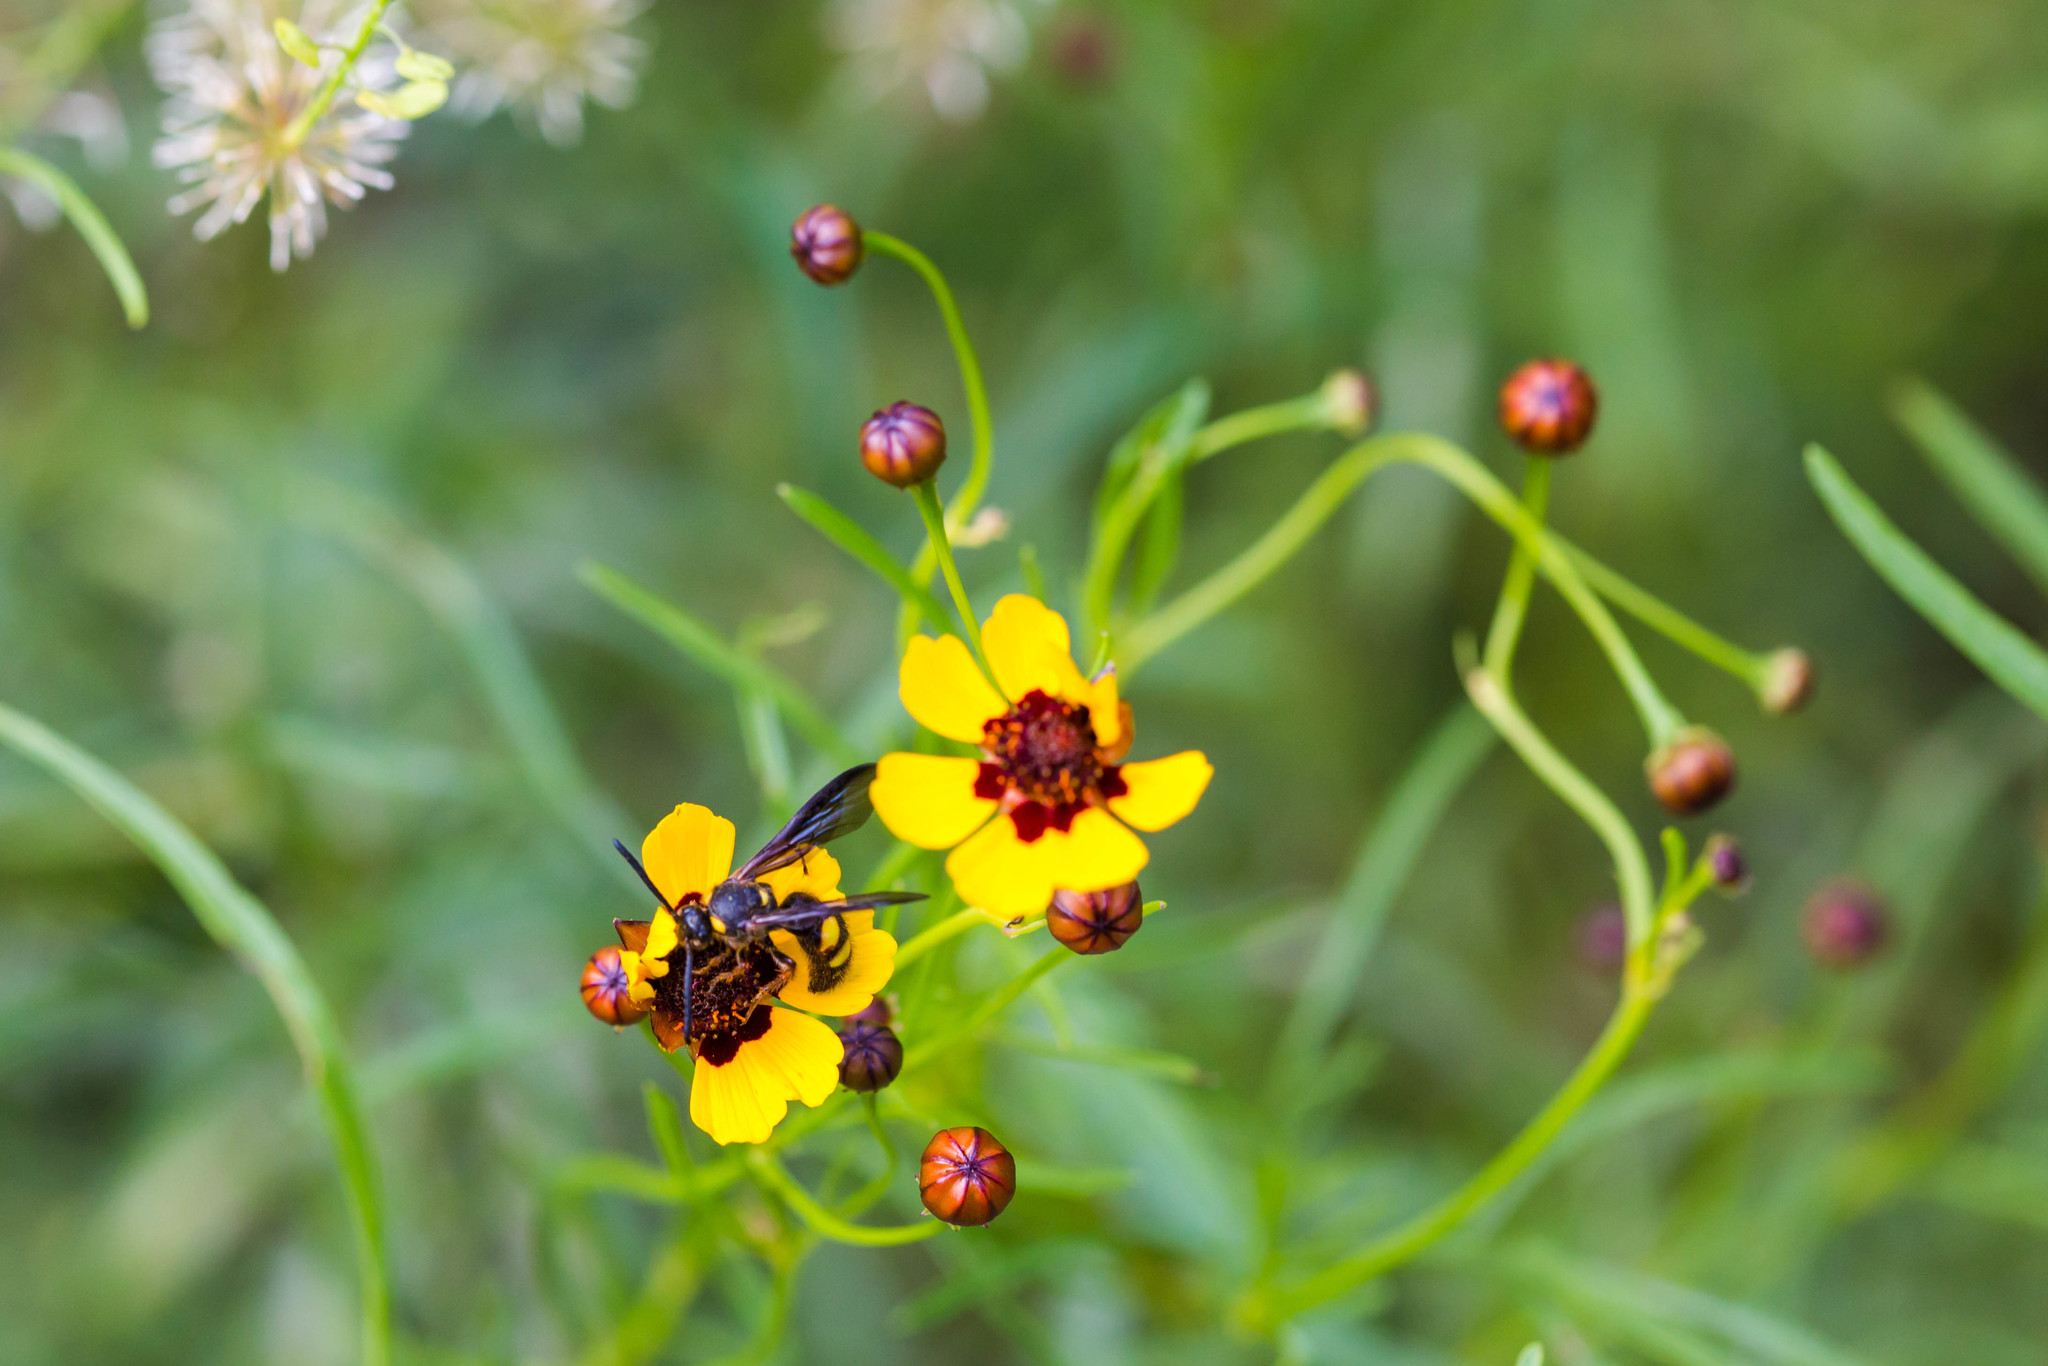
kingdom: Animalia
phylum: Arthropoda
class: Insecta
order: Hymenoptera
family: Scoliidae
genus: Scolia
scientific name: Scolia nobilitata
